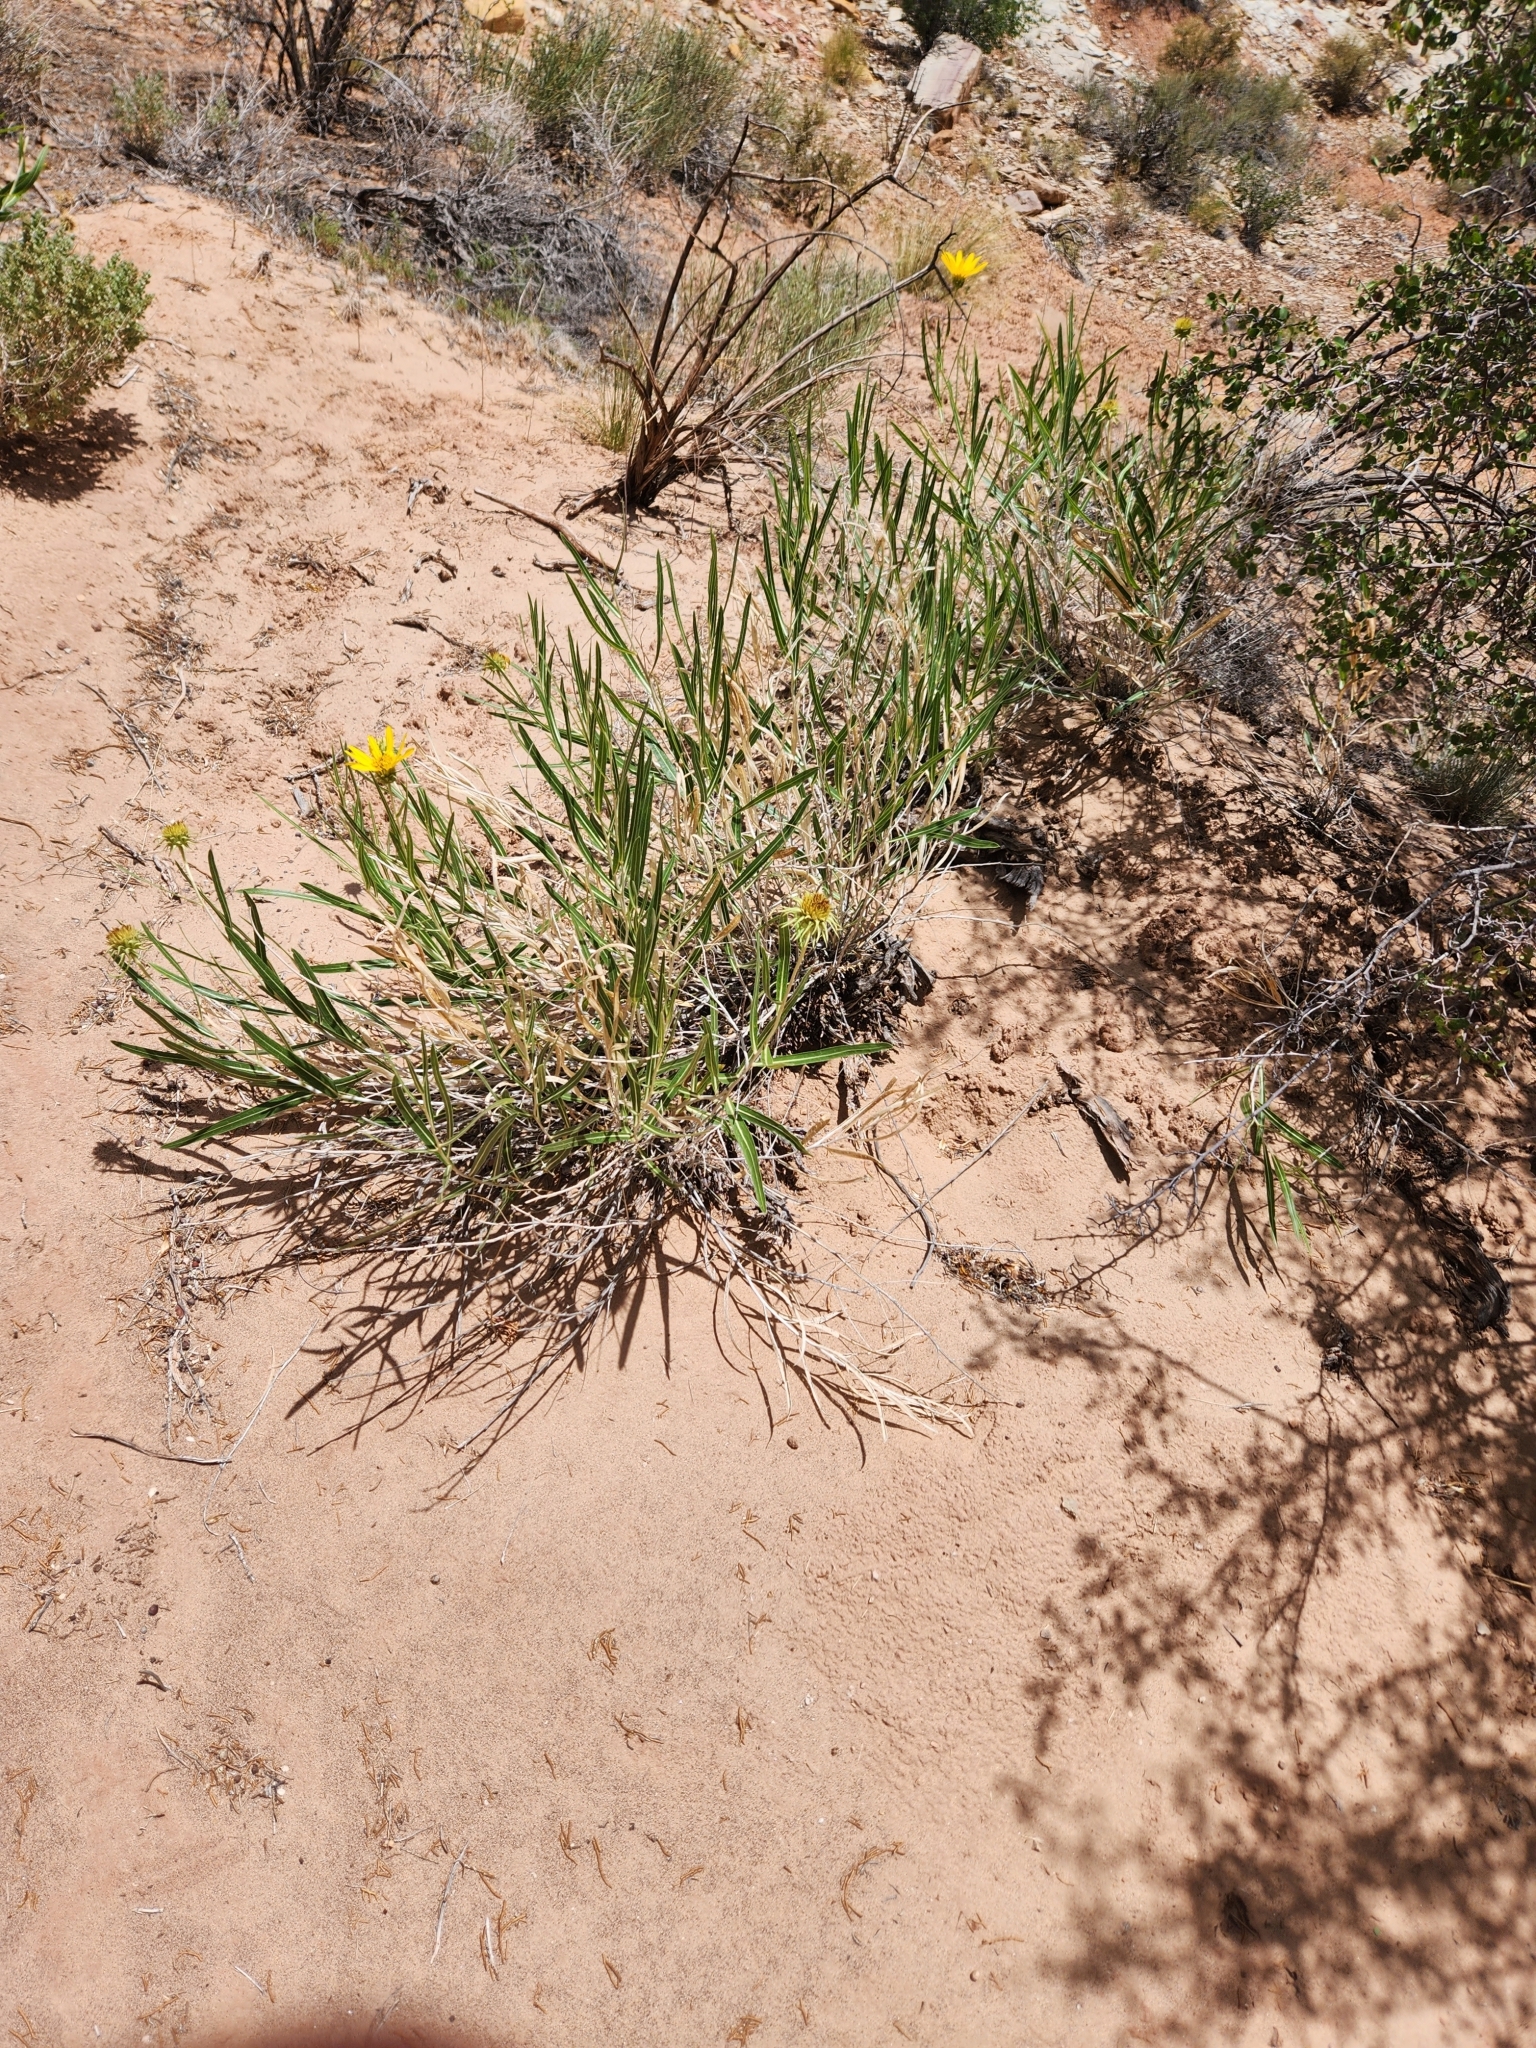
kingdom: Plantae
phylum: Tracheophyta
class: Magnoliopsida
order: Asterales
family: Asteraceae
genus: Scabrethia
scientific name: Scabrethia scabra
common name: Rough mules's-ears
